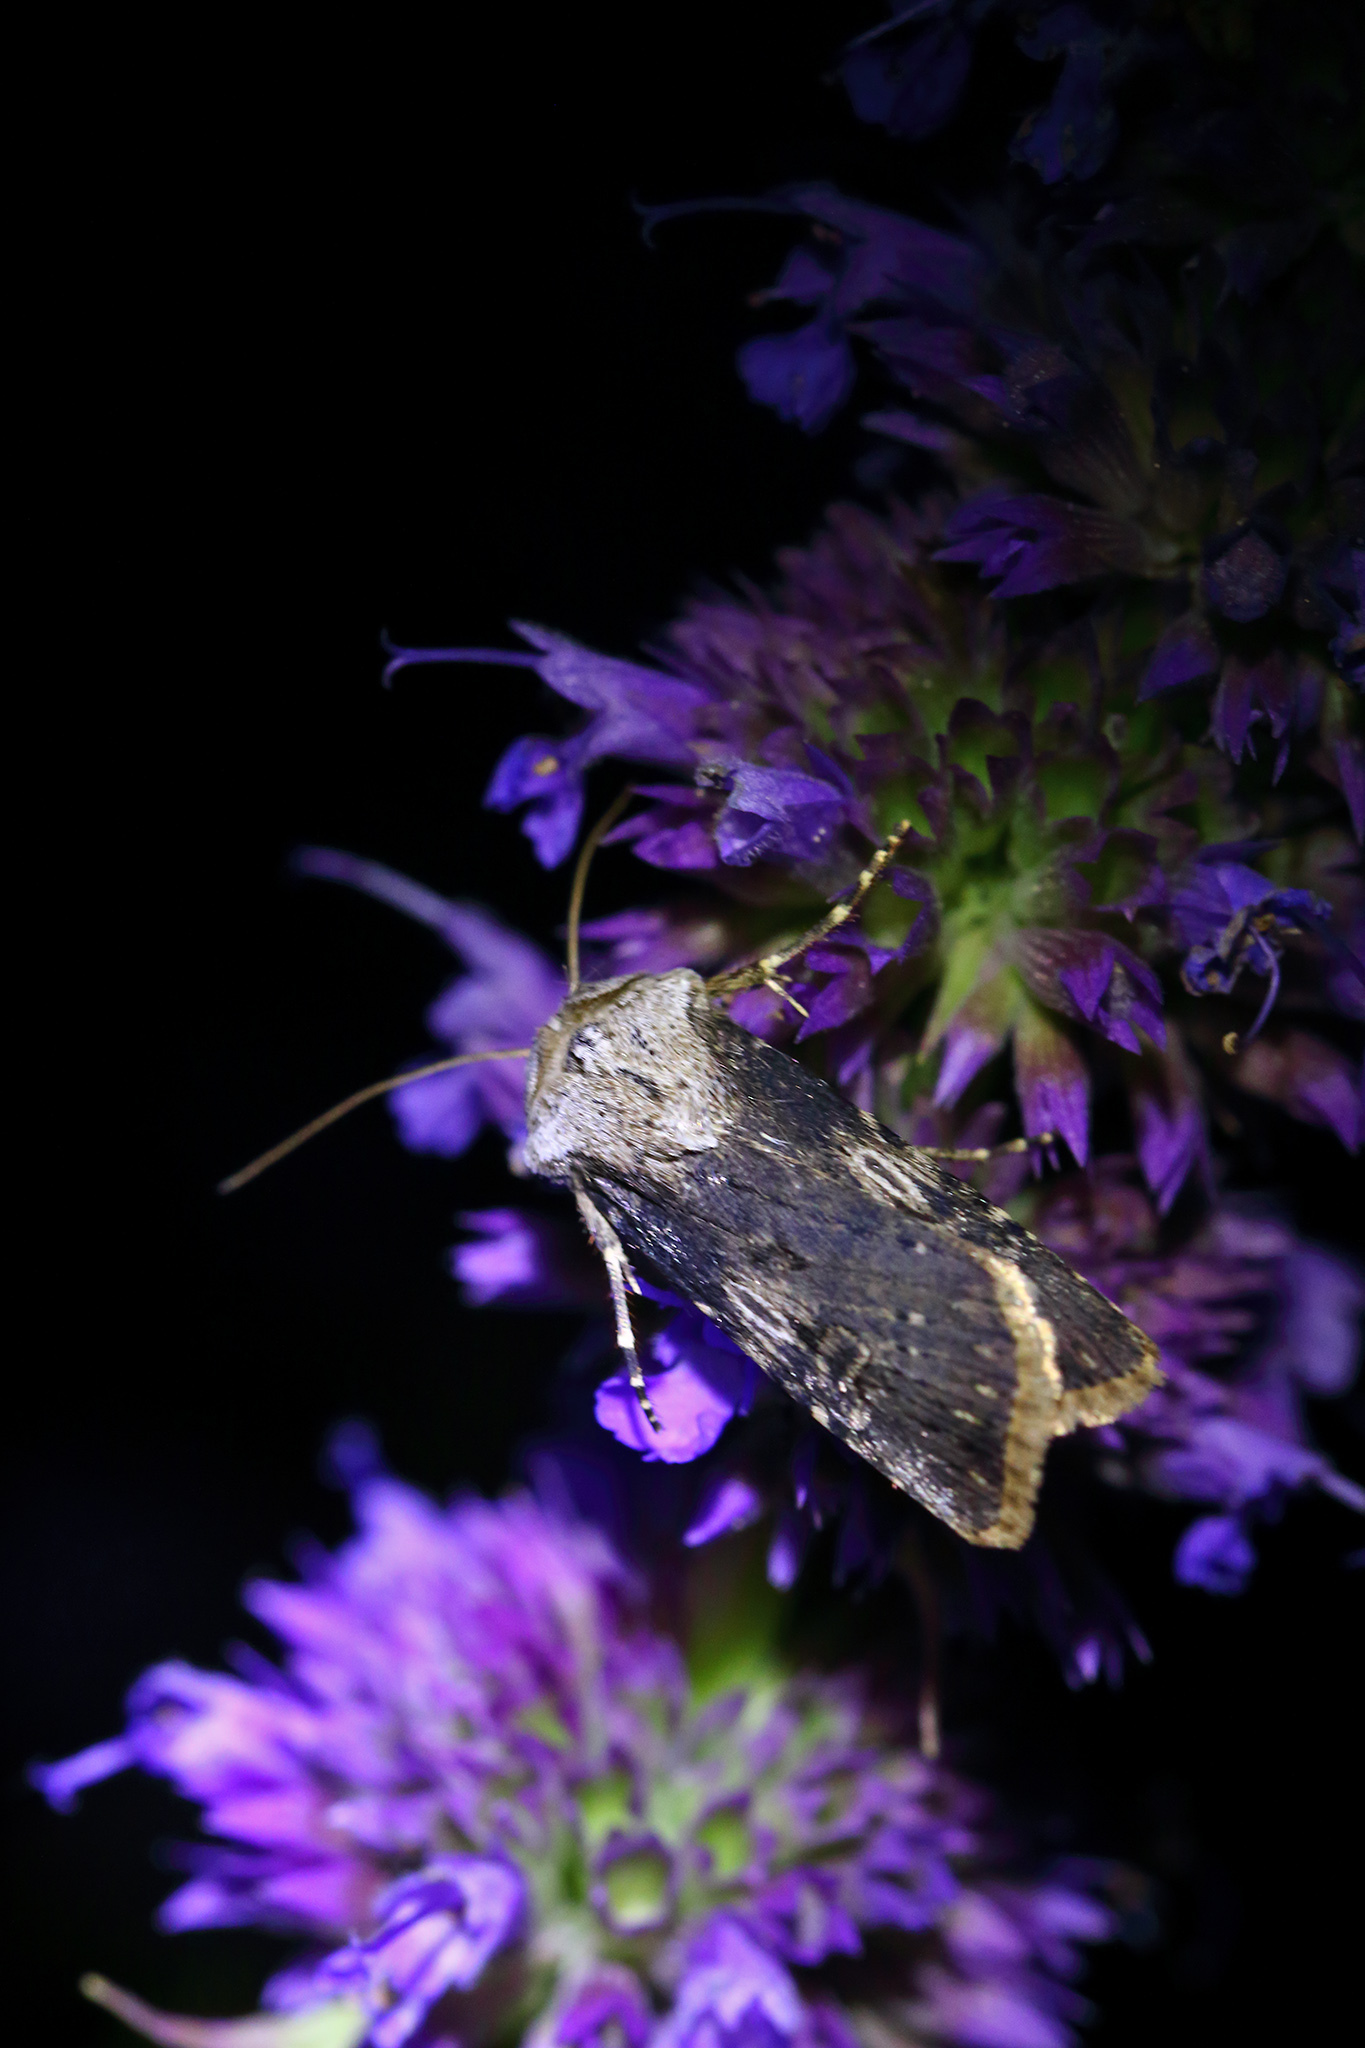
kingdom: Animalia
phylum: Arthropoda
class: Insecta
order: Lepidoptera
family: Noctuidae
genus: Agrotis
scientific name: Agrotis puta
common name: Shuttle-shaped dart
